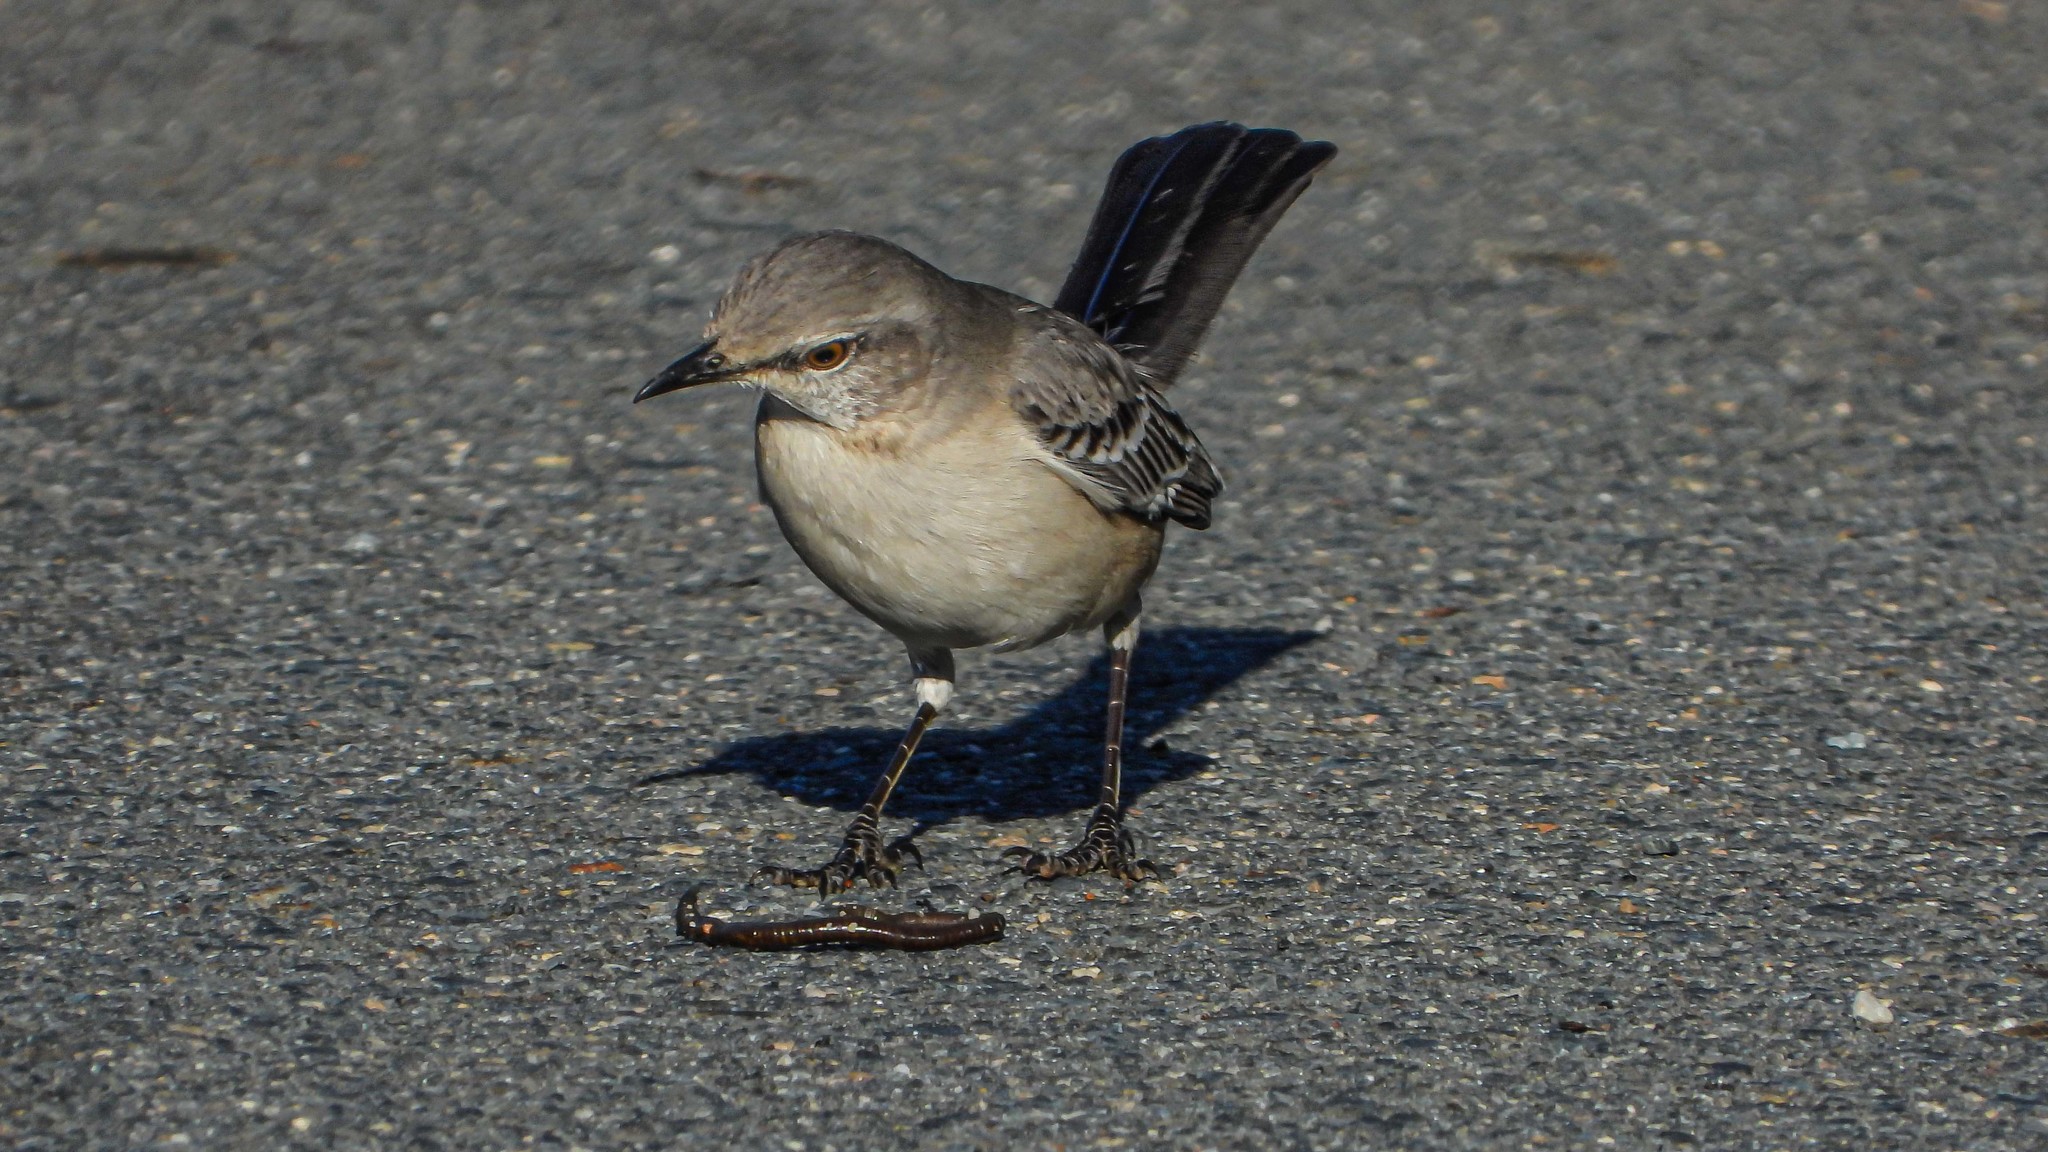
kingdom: Animalia
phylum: Chordata
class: Aves
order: Passeriformes
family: Mimidae
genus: Mimus
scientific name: Mimus polyglottos
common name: Northern mockingbird
